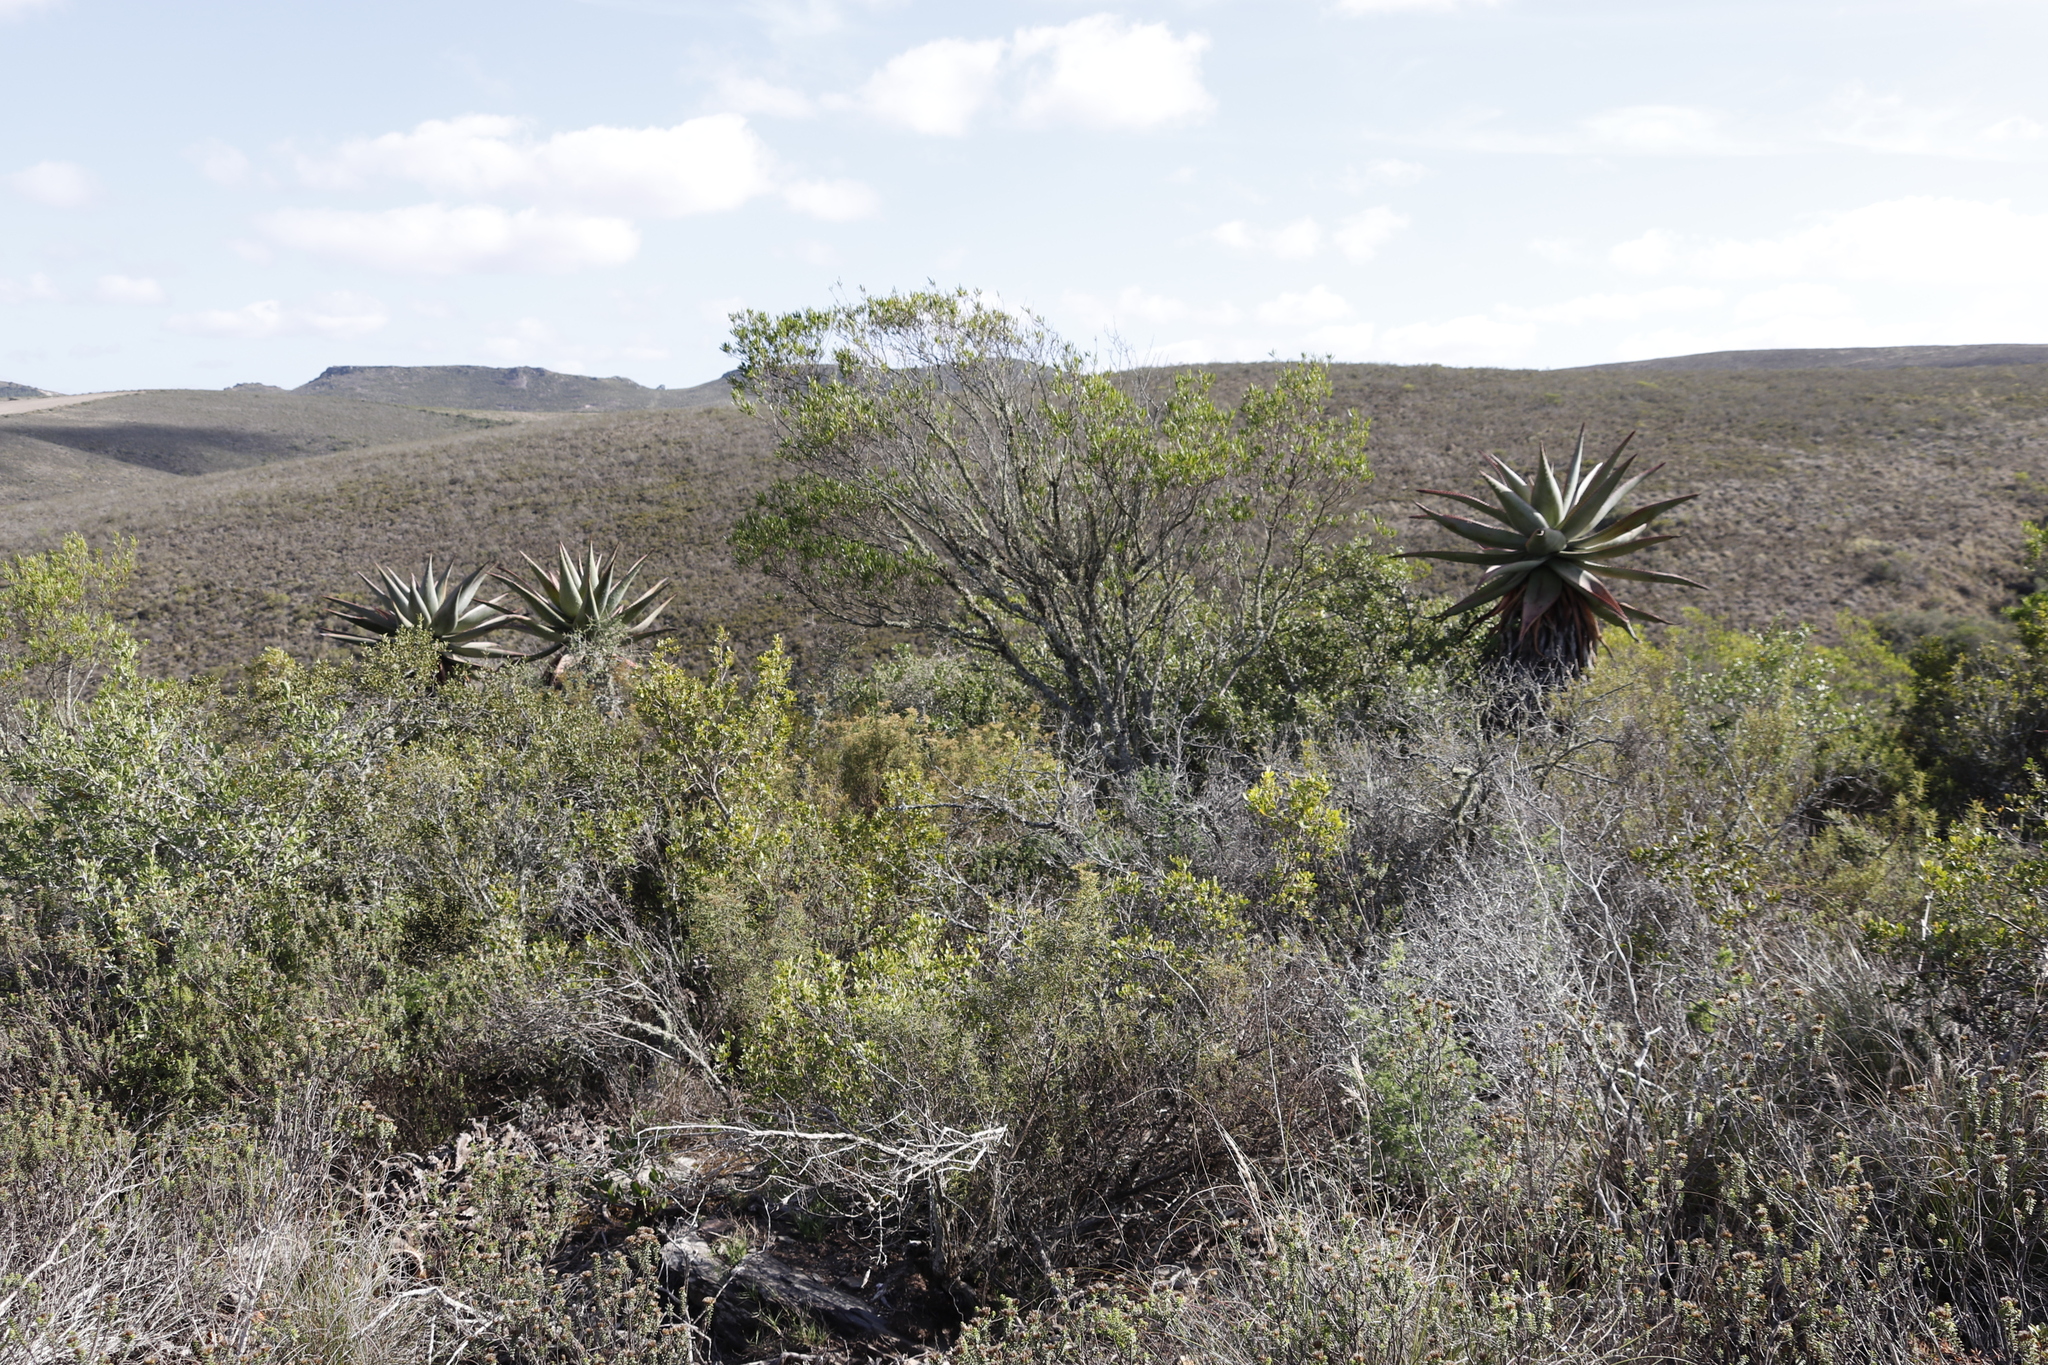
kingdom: Plantae
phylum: Tracheophyta
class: Liliopsida
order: Asparagales
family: Asphodelaceae
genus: Aloe
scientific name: Aloe ferox
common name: Bitter aloe
